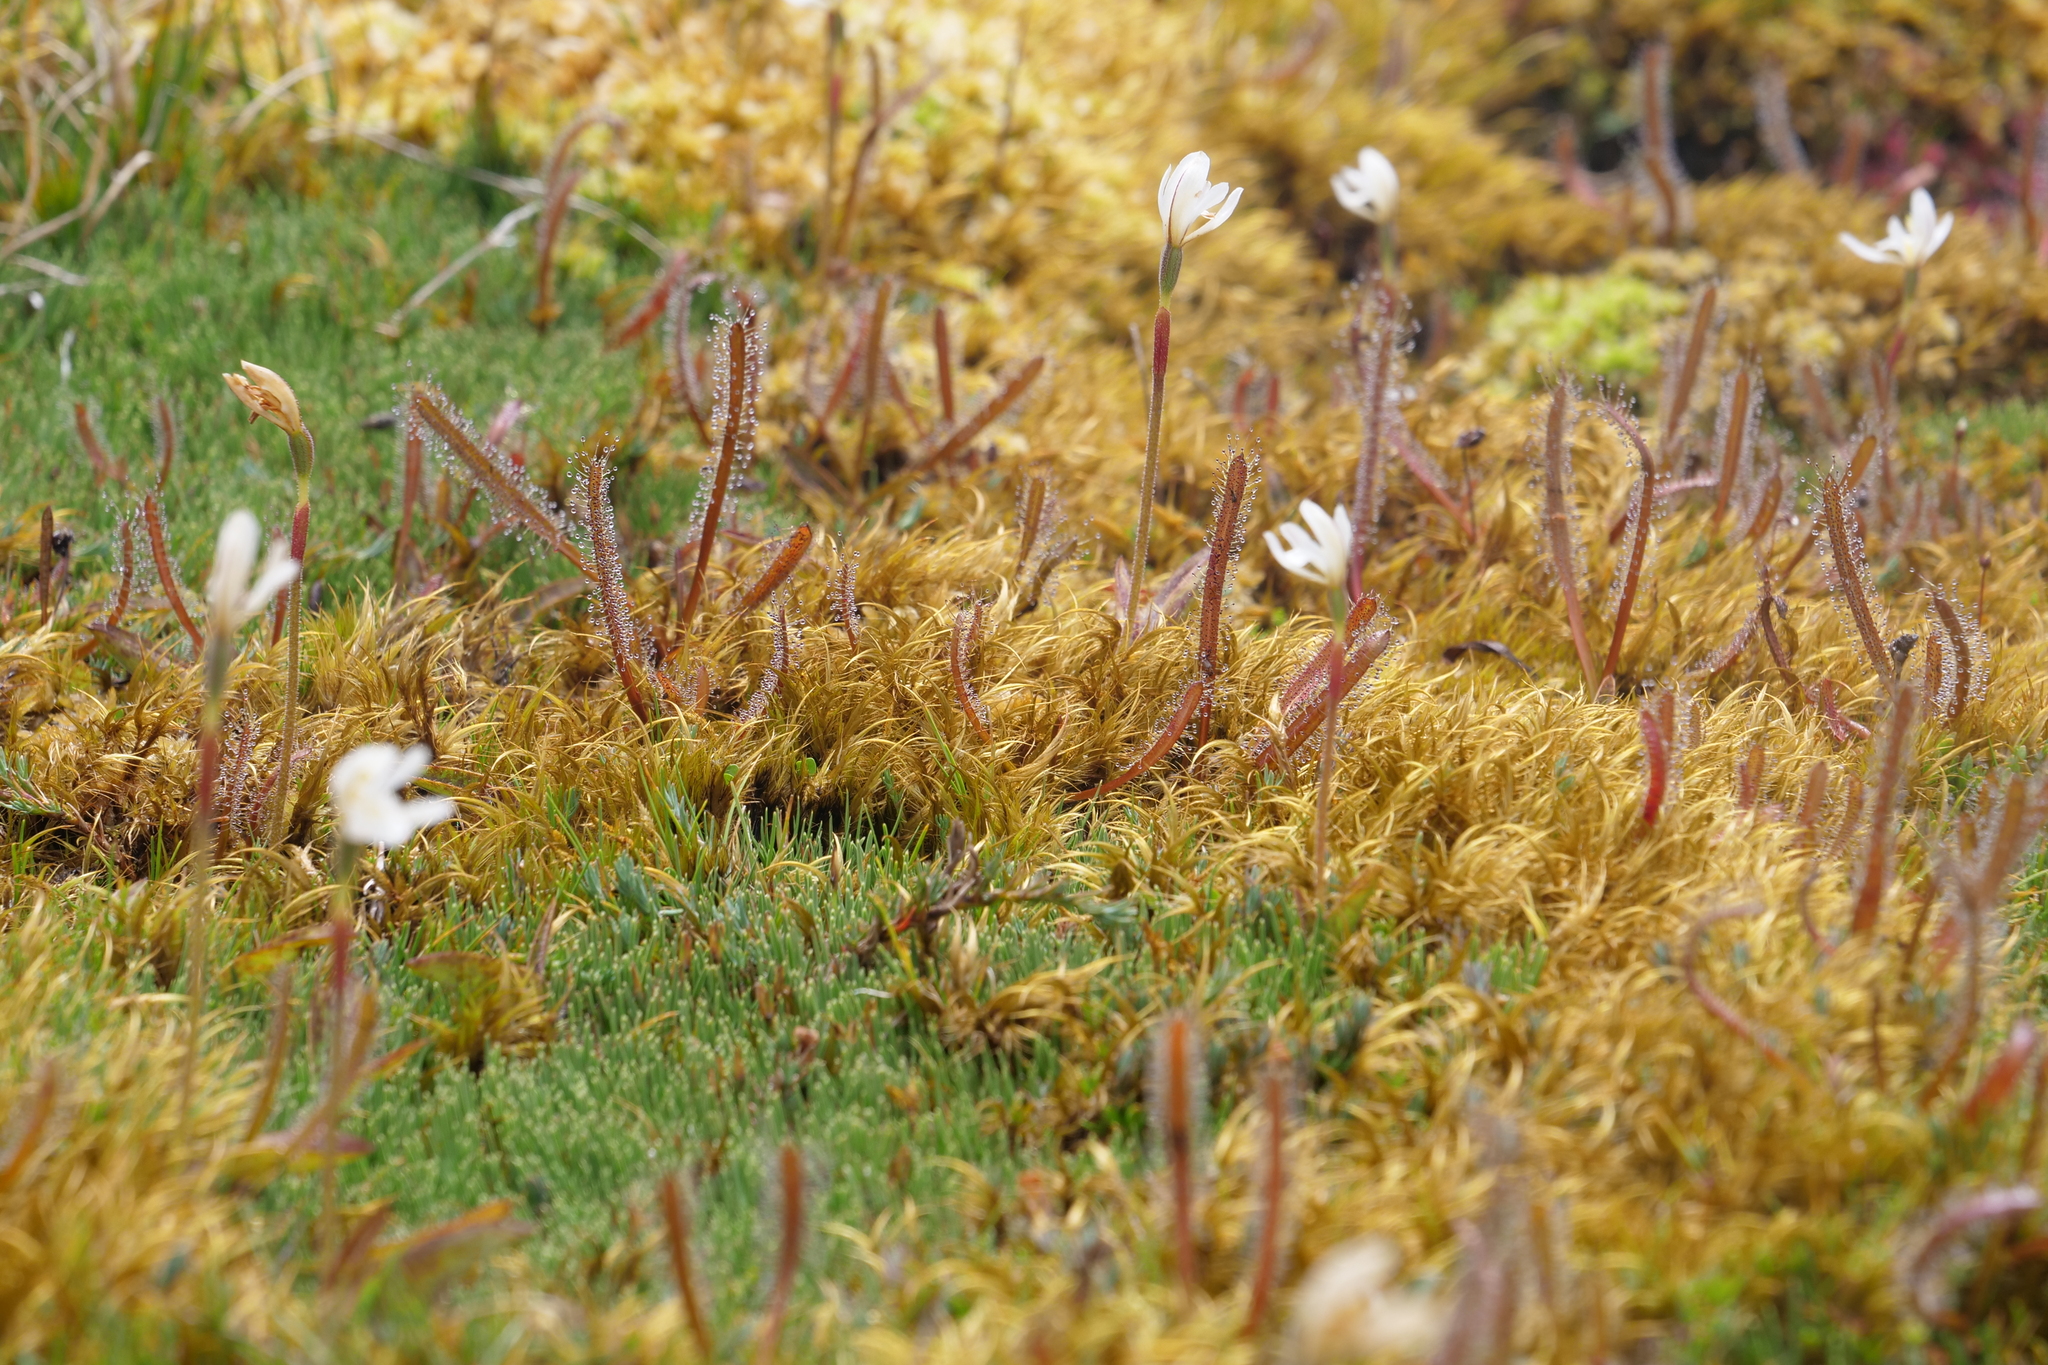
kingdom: Plantae
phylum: Tracheophyta
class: Magnoliopsida
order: Caryophyllales
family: Droseraceae
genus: Drosera
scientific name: Drosera arcturi
